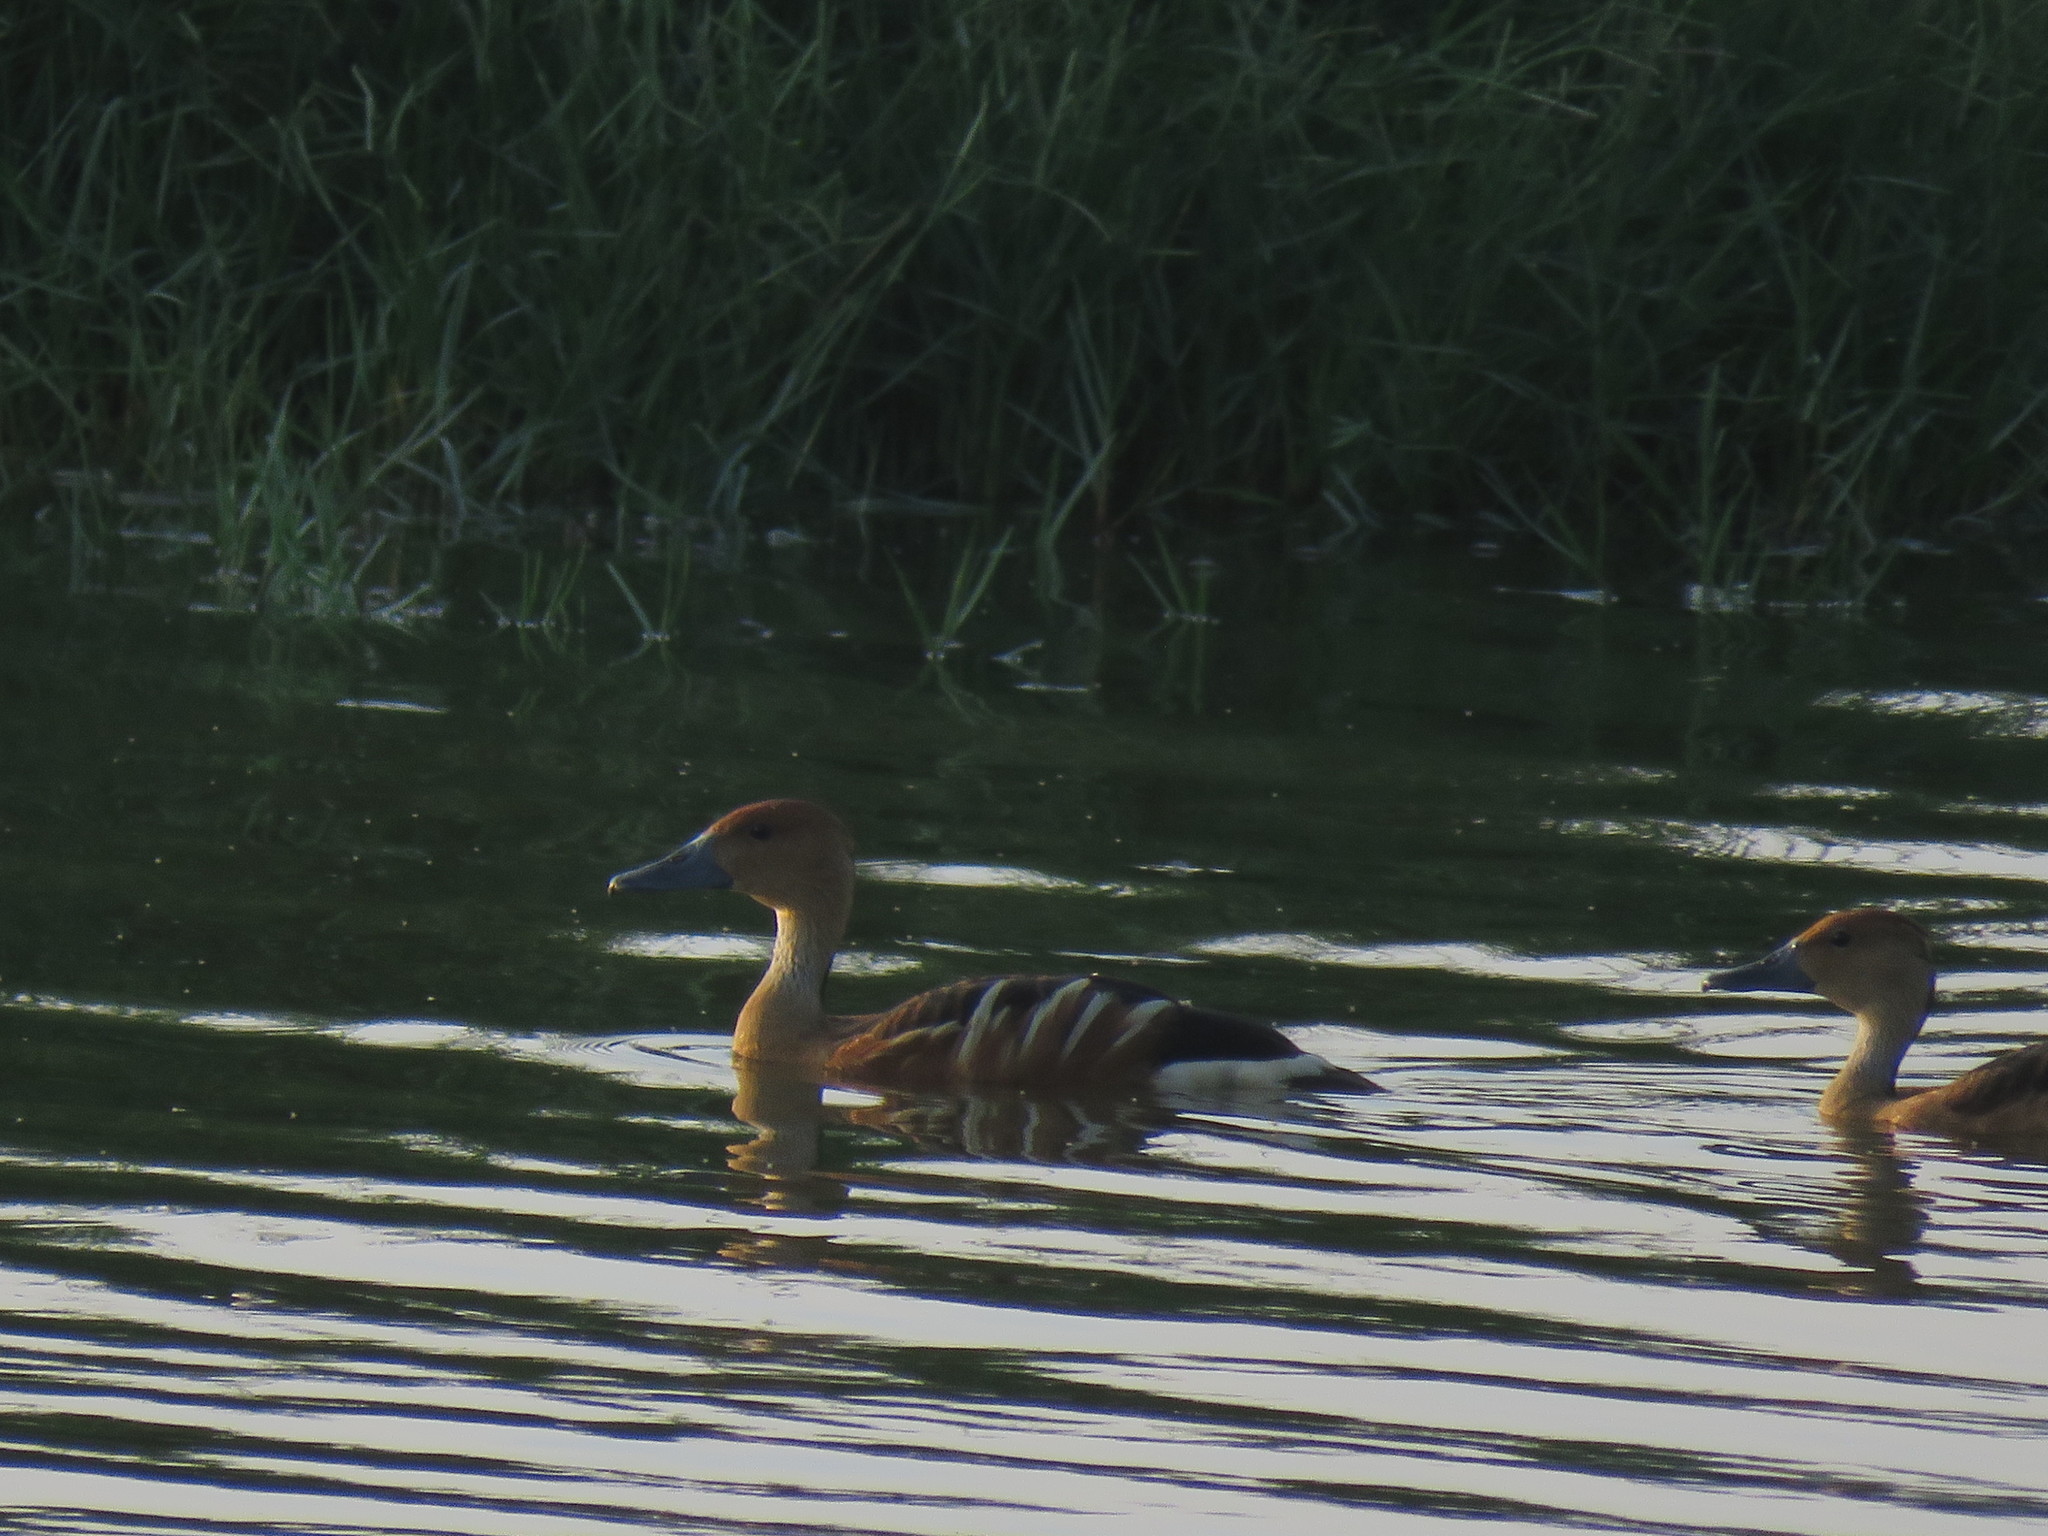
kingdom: Animalia
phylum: Chordata
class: Aves
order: Anseriformes
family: Anatidae
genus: Dendrocygna
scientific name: Dendrocygna bicolor
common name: Fulvous whistling duck
